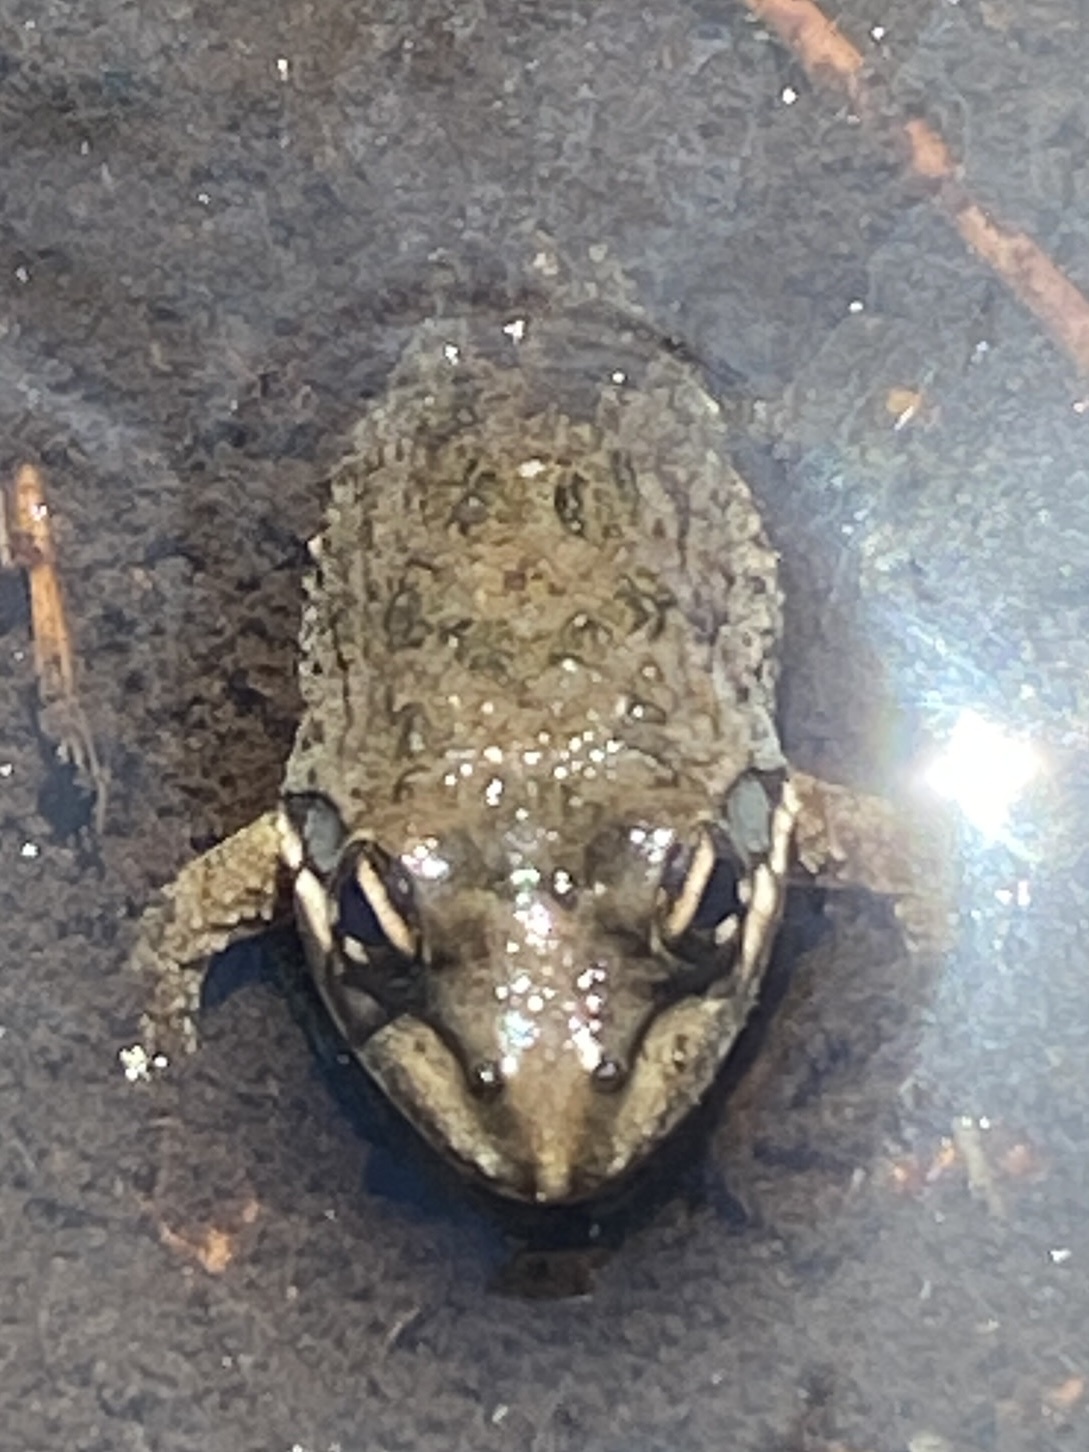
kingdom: Animalia
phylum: Chordata
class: Amphibia
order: Anura
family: Pyxicephalidae
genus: Amietia
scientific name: Amietia fuscigula
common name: Cape rana
